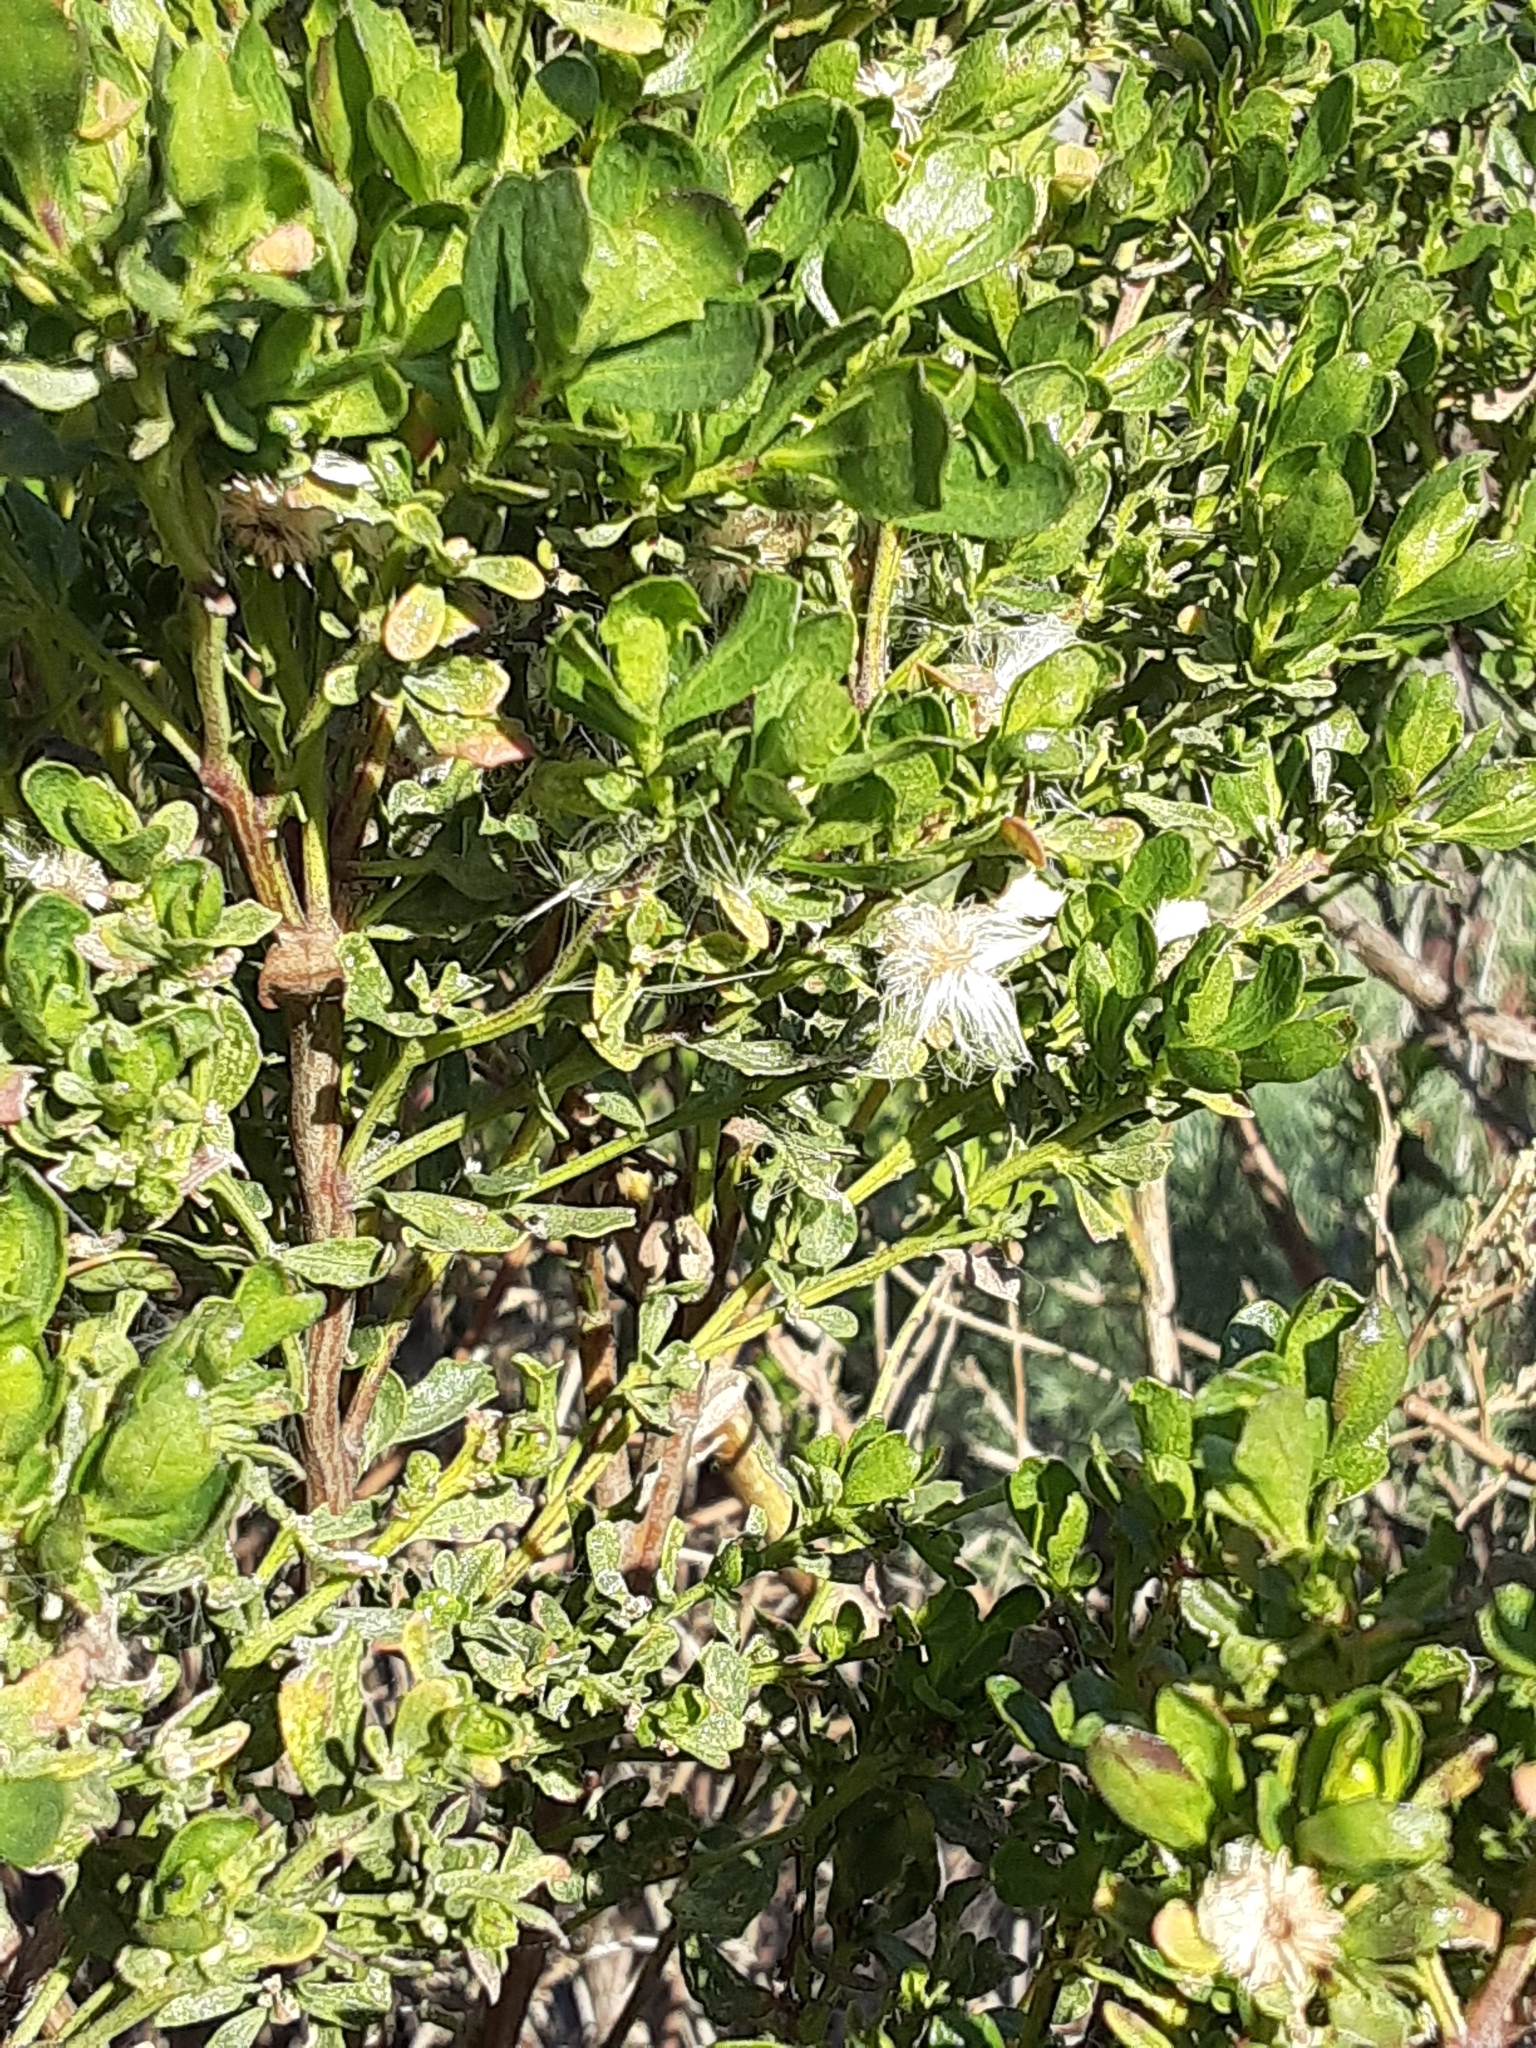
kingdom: Plantae
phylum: Tracheophyta
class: Magnoliopsida
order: Asterales
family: Asteraceae
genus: Baccharis
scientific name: Baccharis pilularis
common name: Coyotebrush
